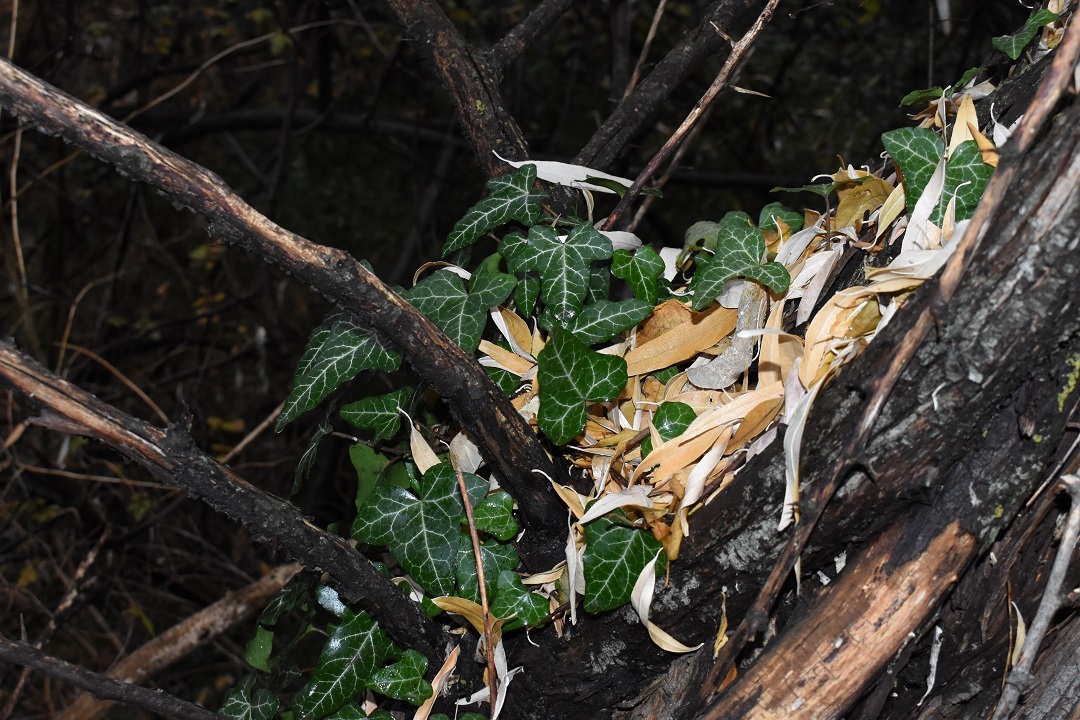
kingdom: Plantae
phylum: Tracheophyta
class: Magnoliopsida
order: Apiales
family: Araliaceae
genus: Hedera
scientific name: Hedera helix
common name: Ivy
